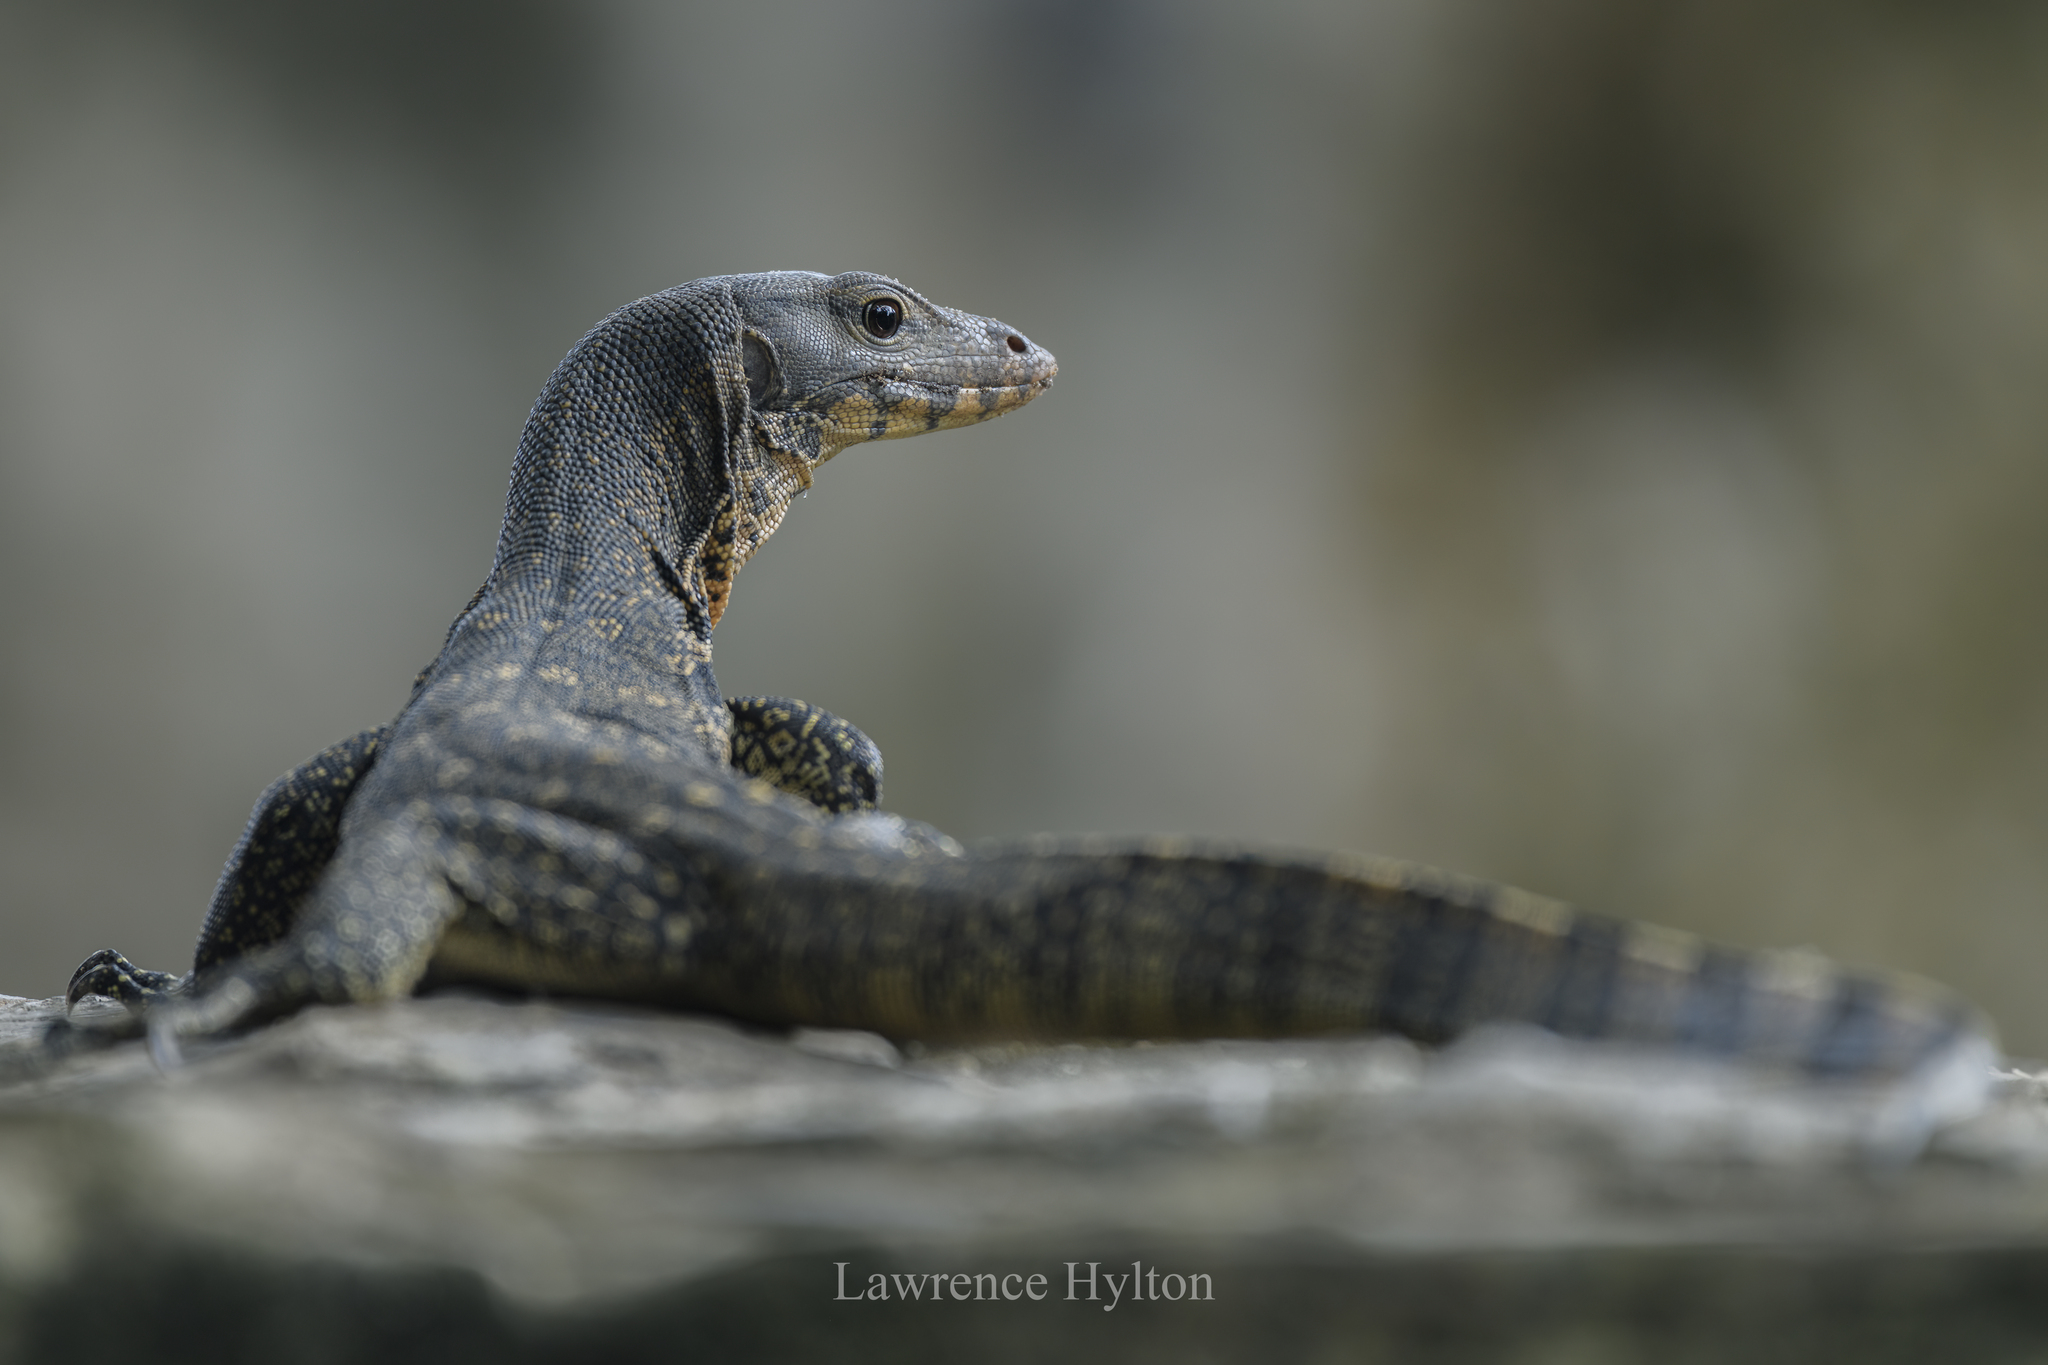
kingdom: Animalia
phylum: Chordata
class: Squamata
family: Varanidae
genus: Varanus
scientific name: Varanus salvator
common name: Common water monitor
